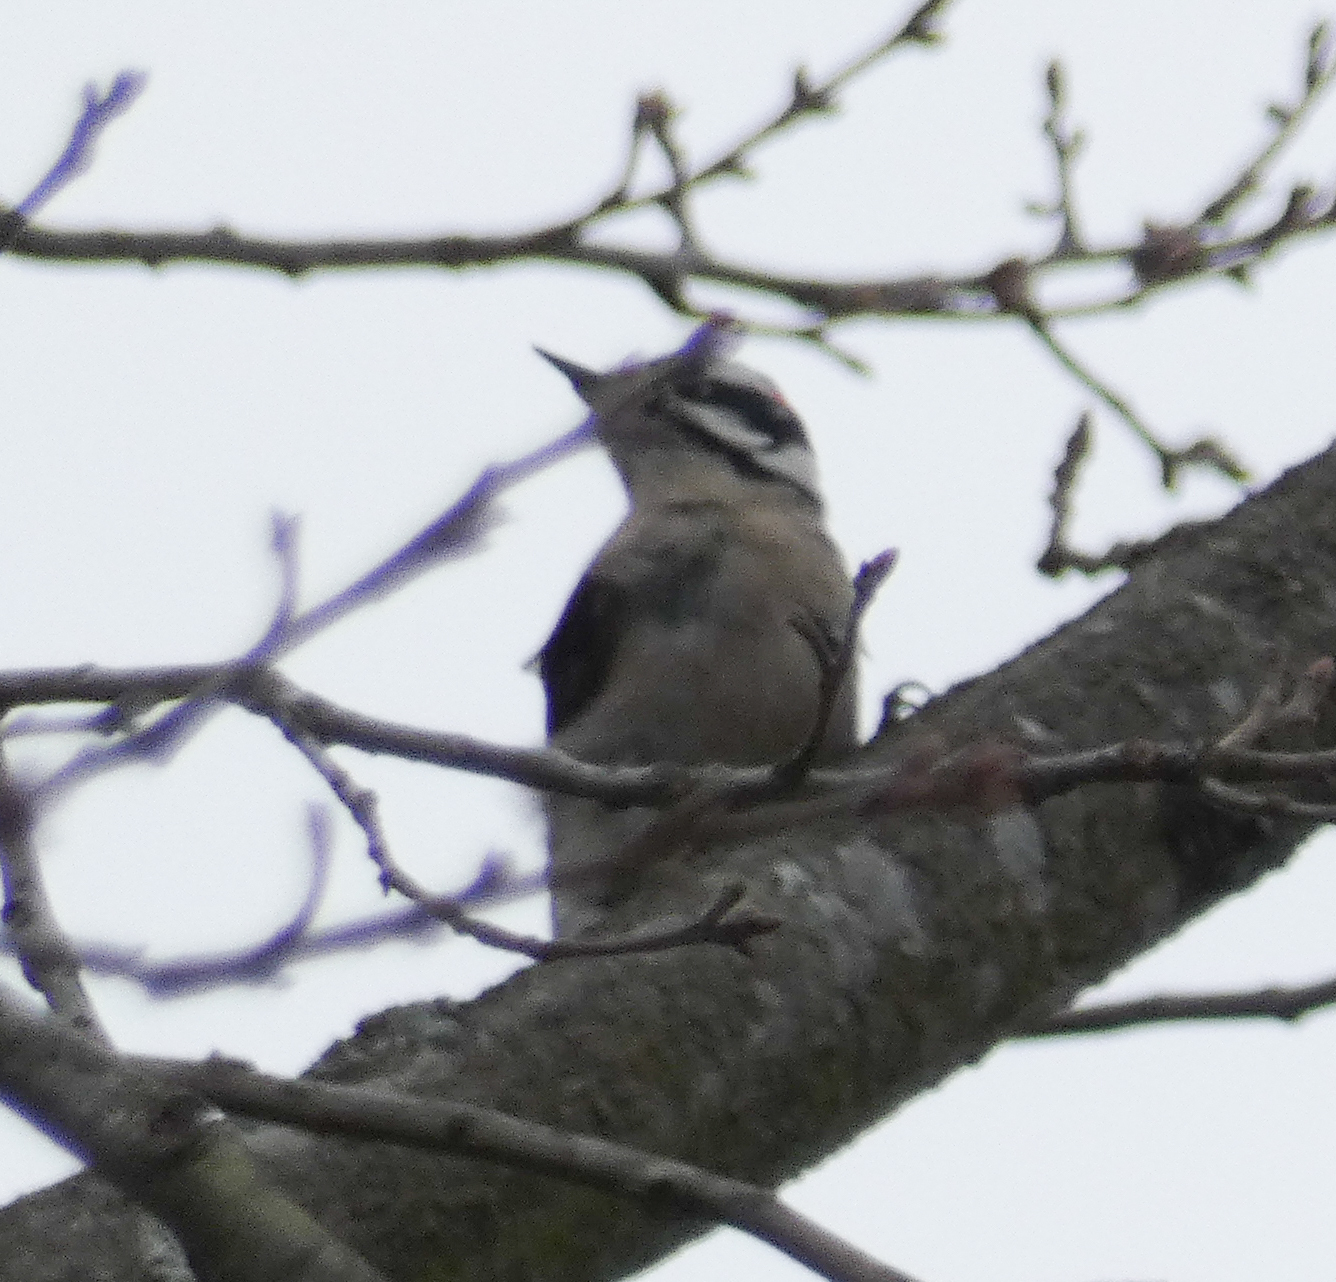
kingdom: Animalia
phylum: Chordata
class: Aves
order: Piciformes
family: Picidae
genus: Dryobates
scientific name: Dryobates pubescens
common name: Downy woodpecker
